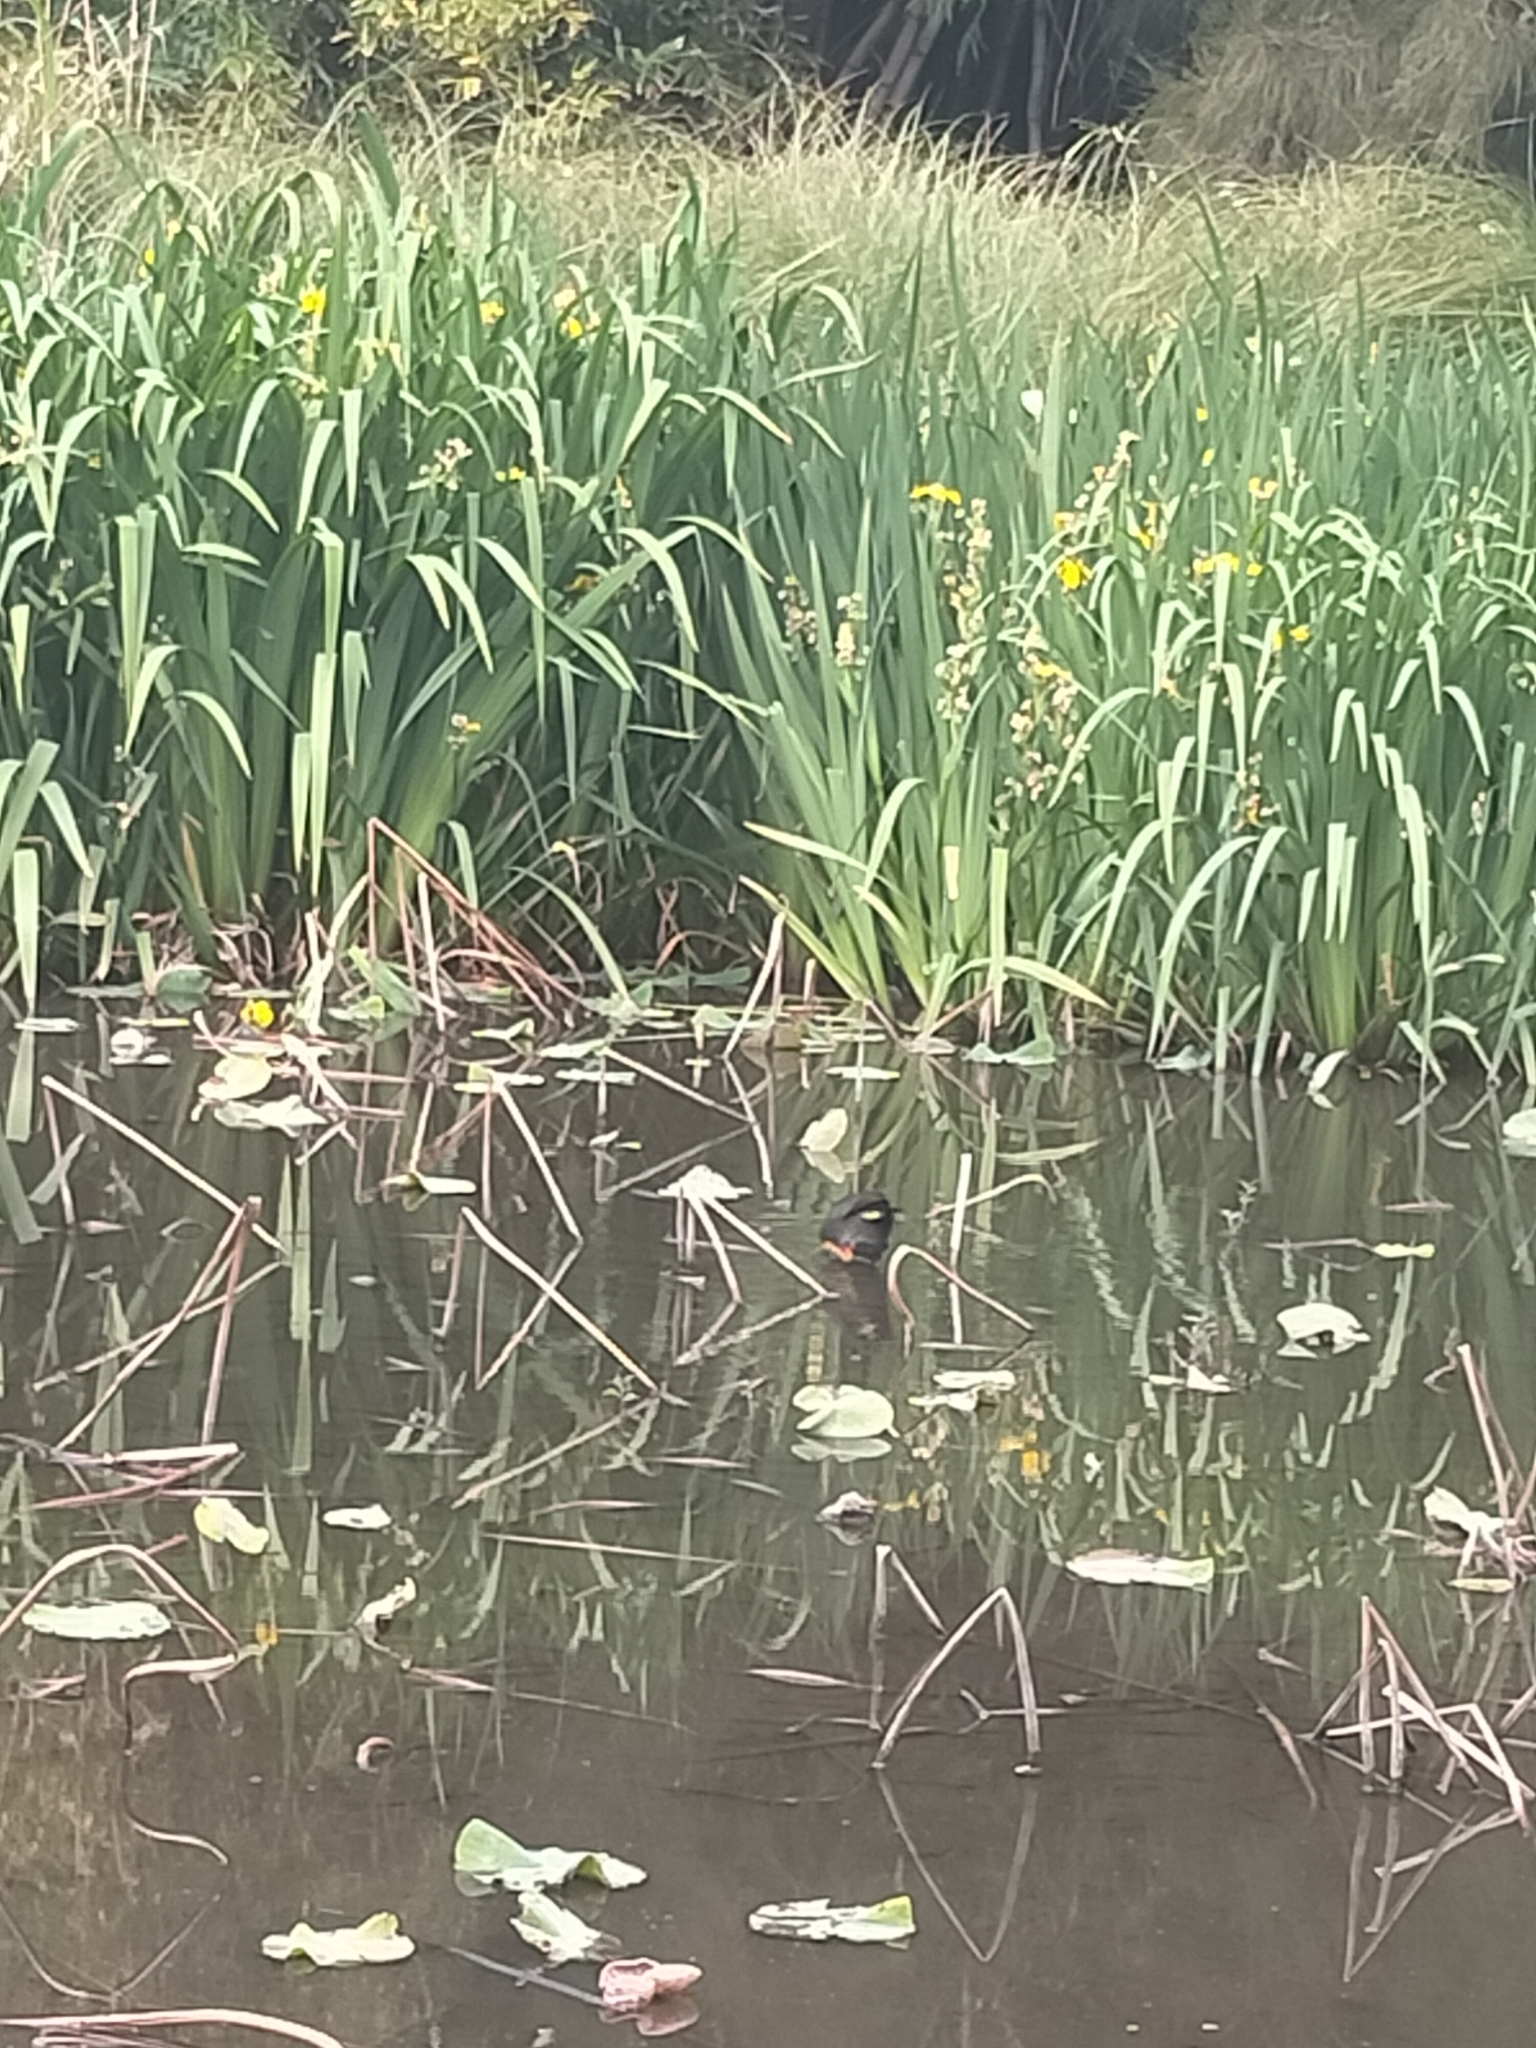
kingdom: Animalia
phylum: Chordata
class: Aves
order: Gruiformes
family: Rallidae
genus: Gallinula
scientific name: Gallinula tenebrosa
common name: Dusky moorhen
